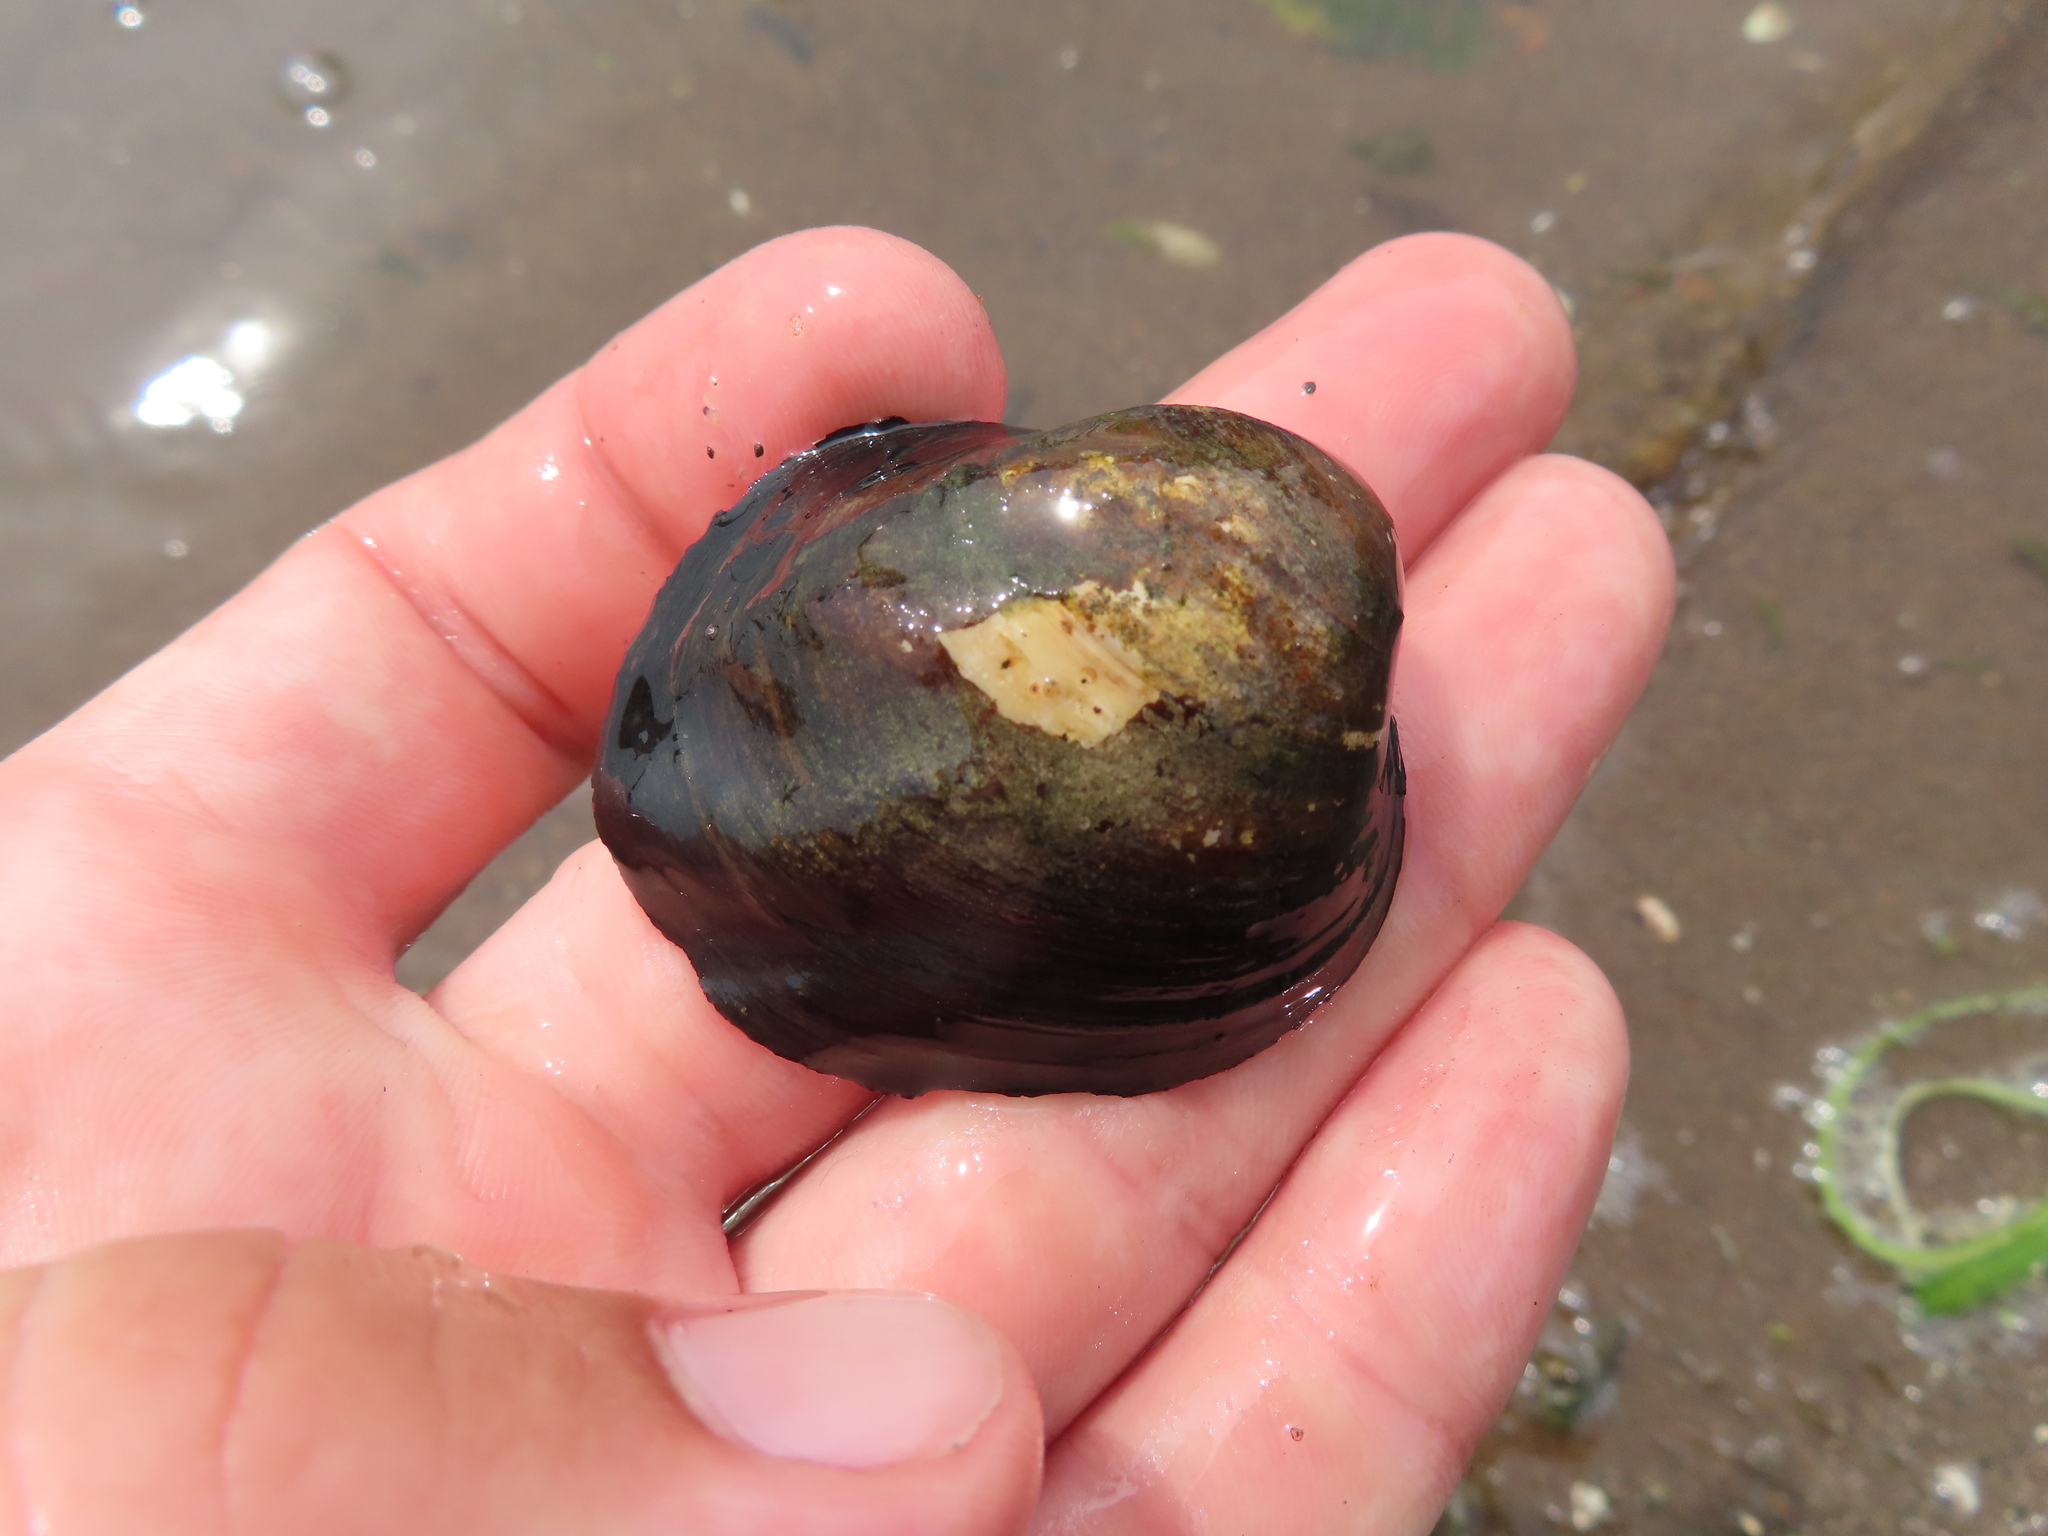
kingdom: Animalia
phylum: Mollusca
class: Bivalvia
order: Unionida
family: Unionidae
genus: Amblema
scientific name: Amblema plicata
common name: Threeridge
